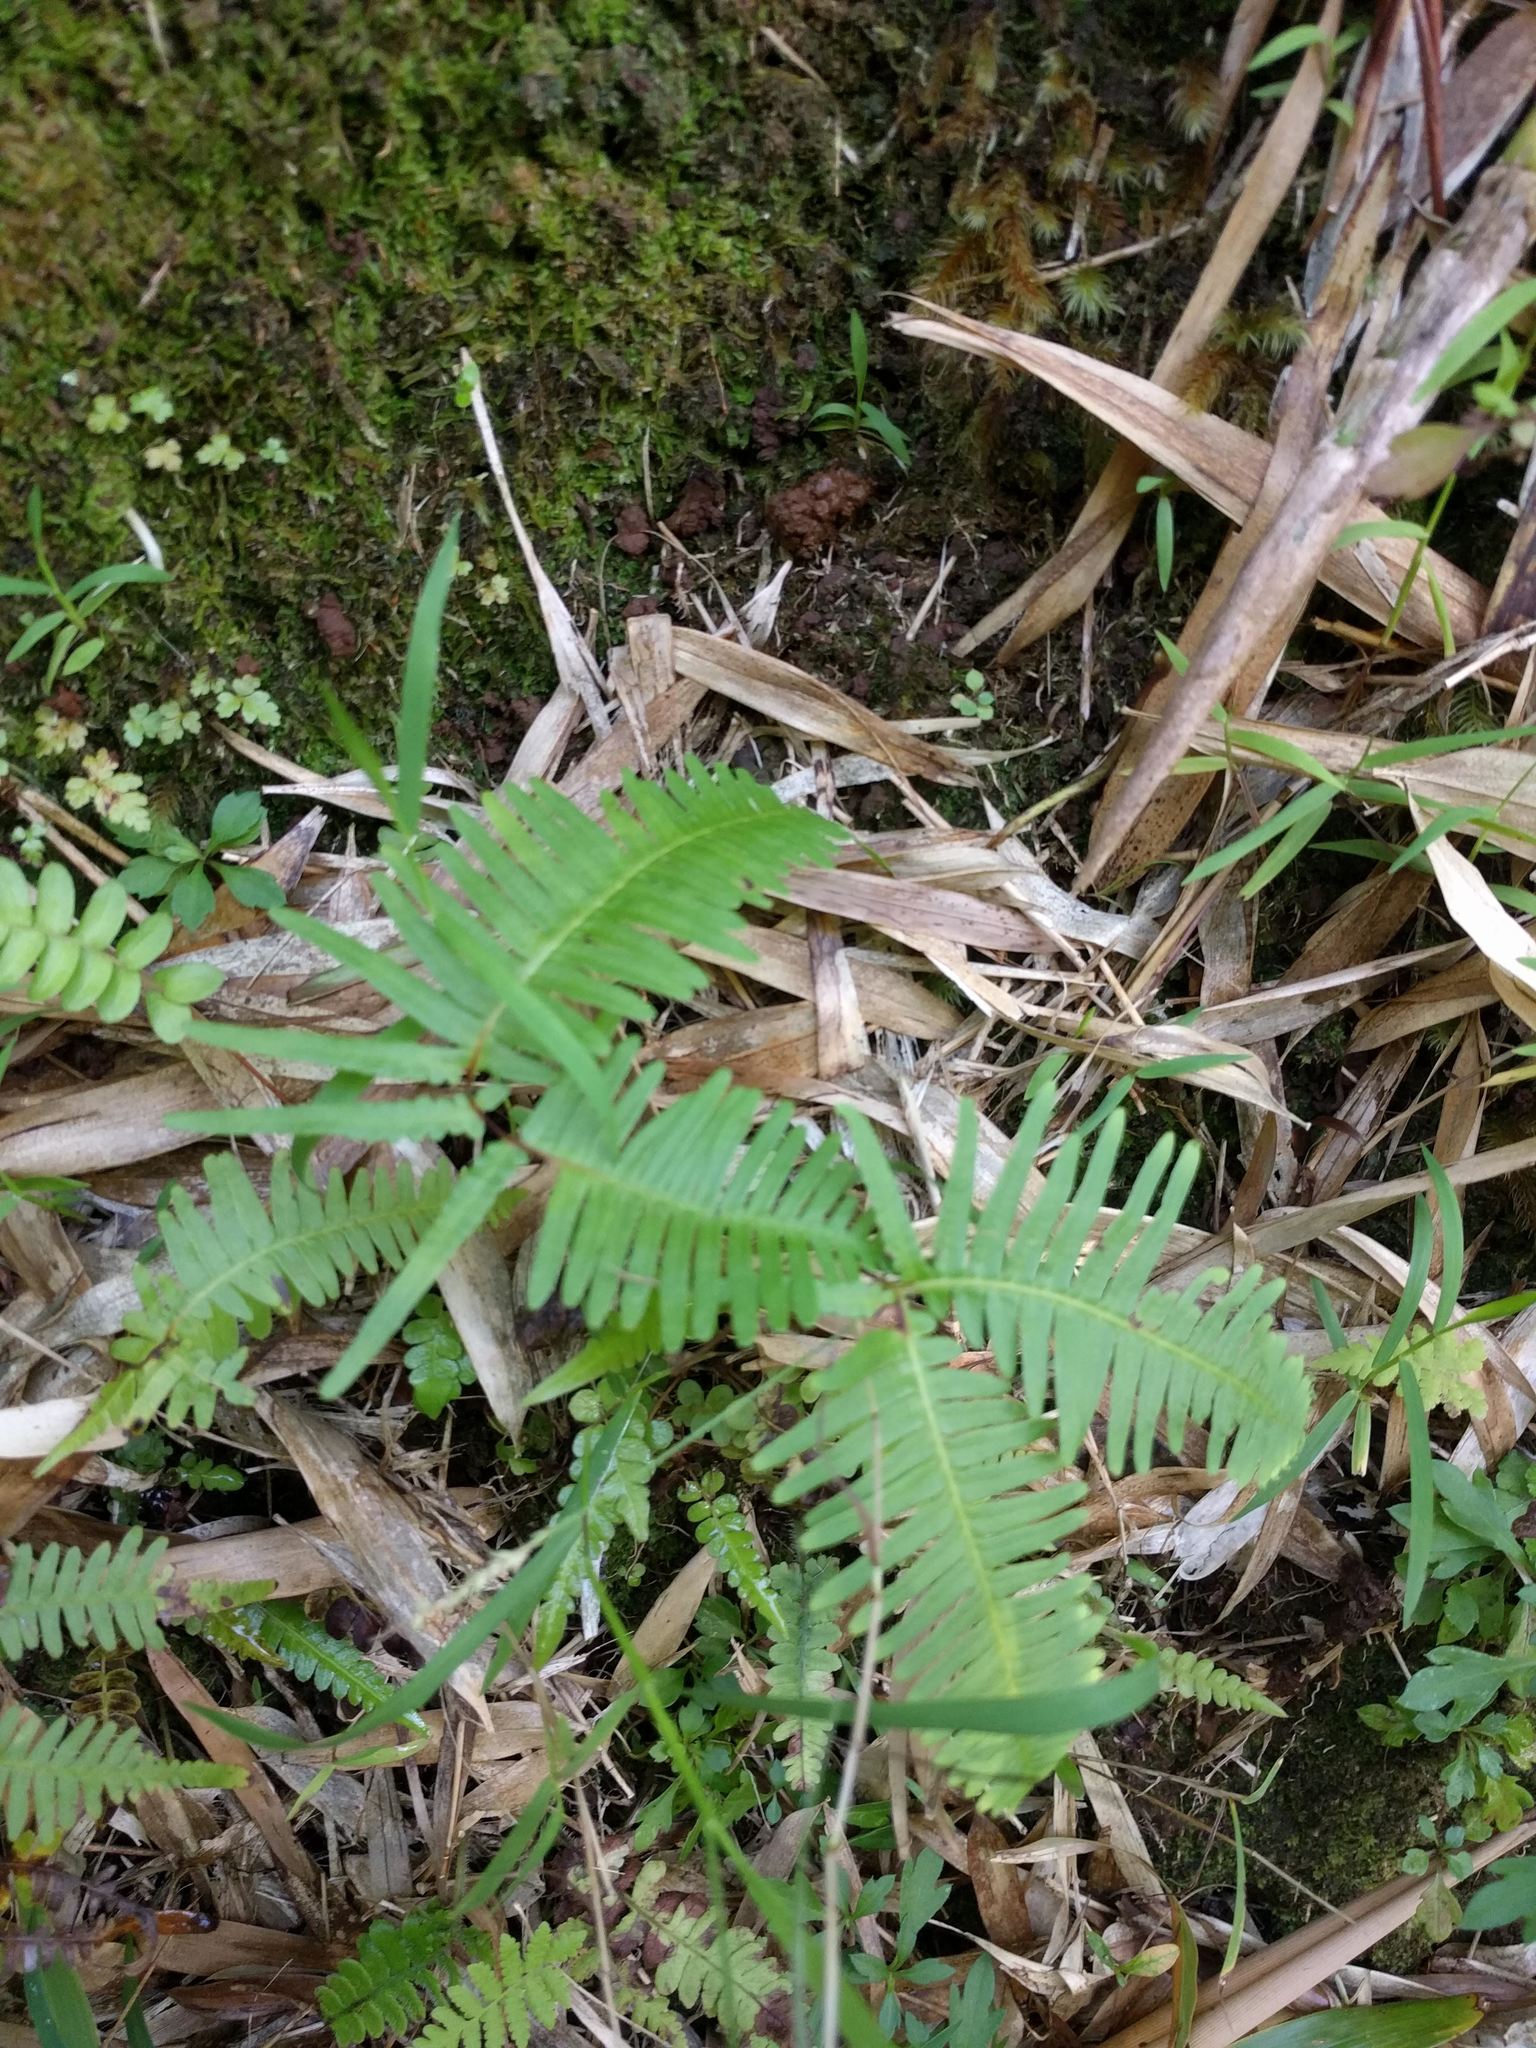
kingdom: Plantae
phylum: Tracheophyta
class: Polypodiopsida
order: Gleicheniales
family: Gleicheniaceae
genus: Dicranopteris
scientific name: Dicranopteris linearis
